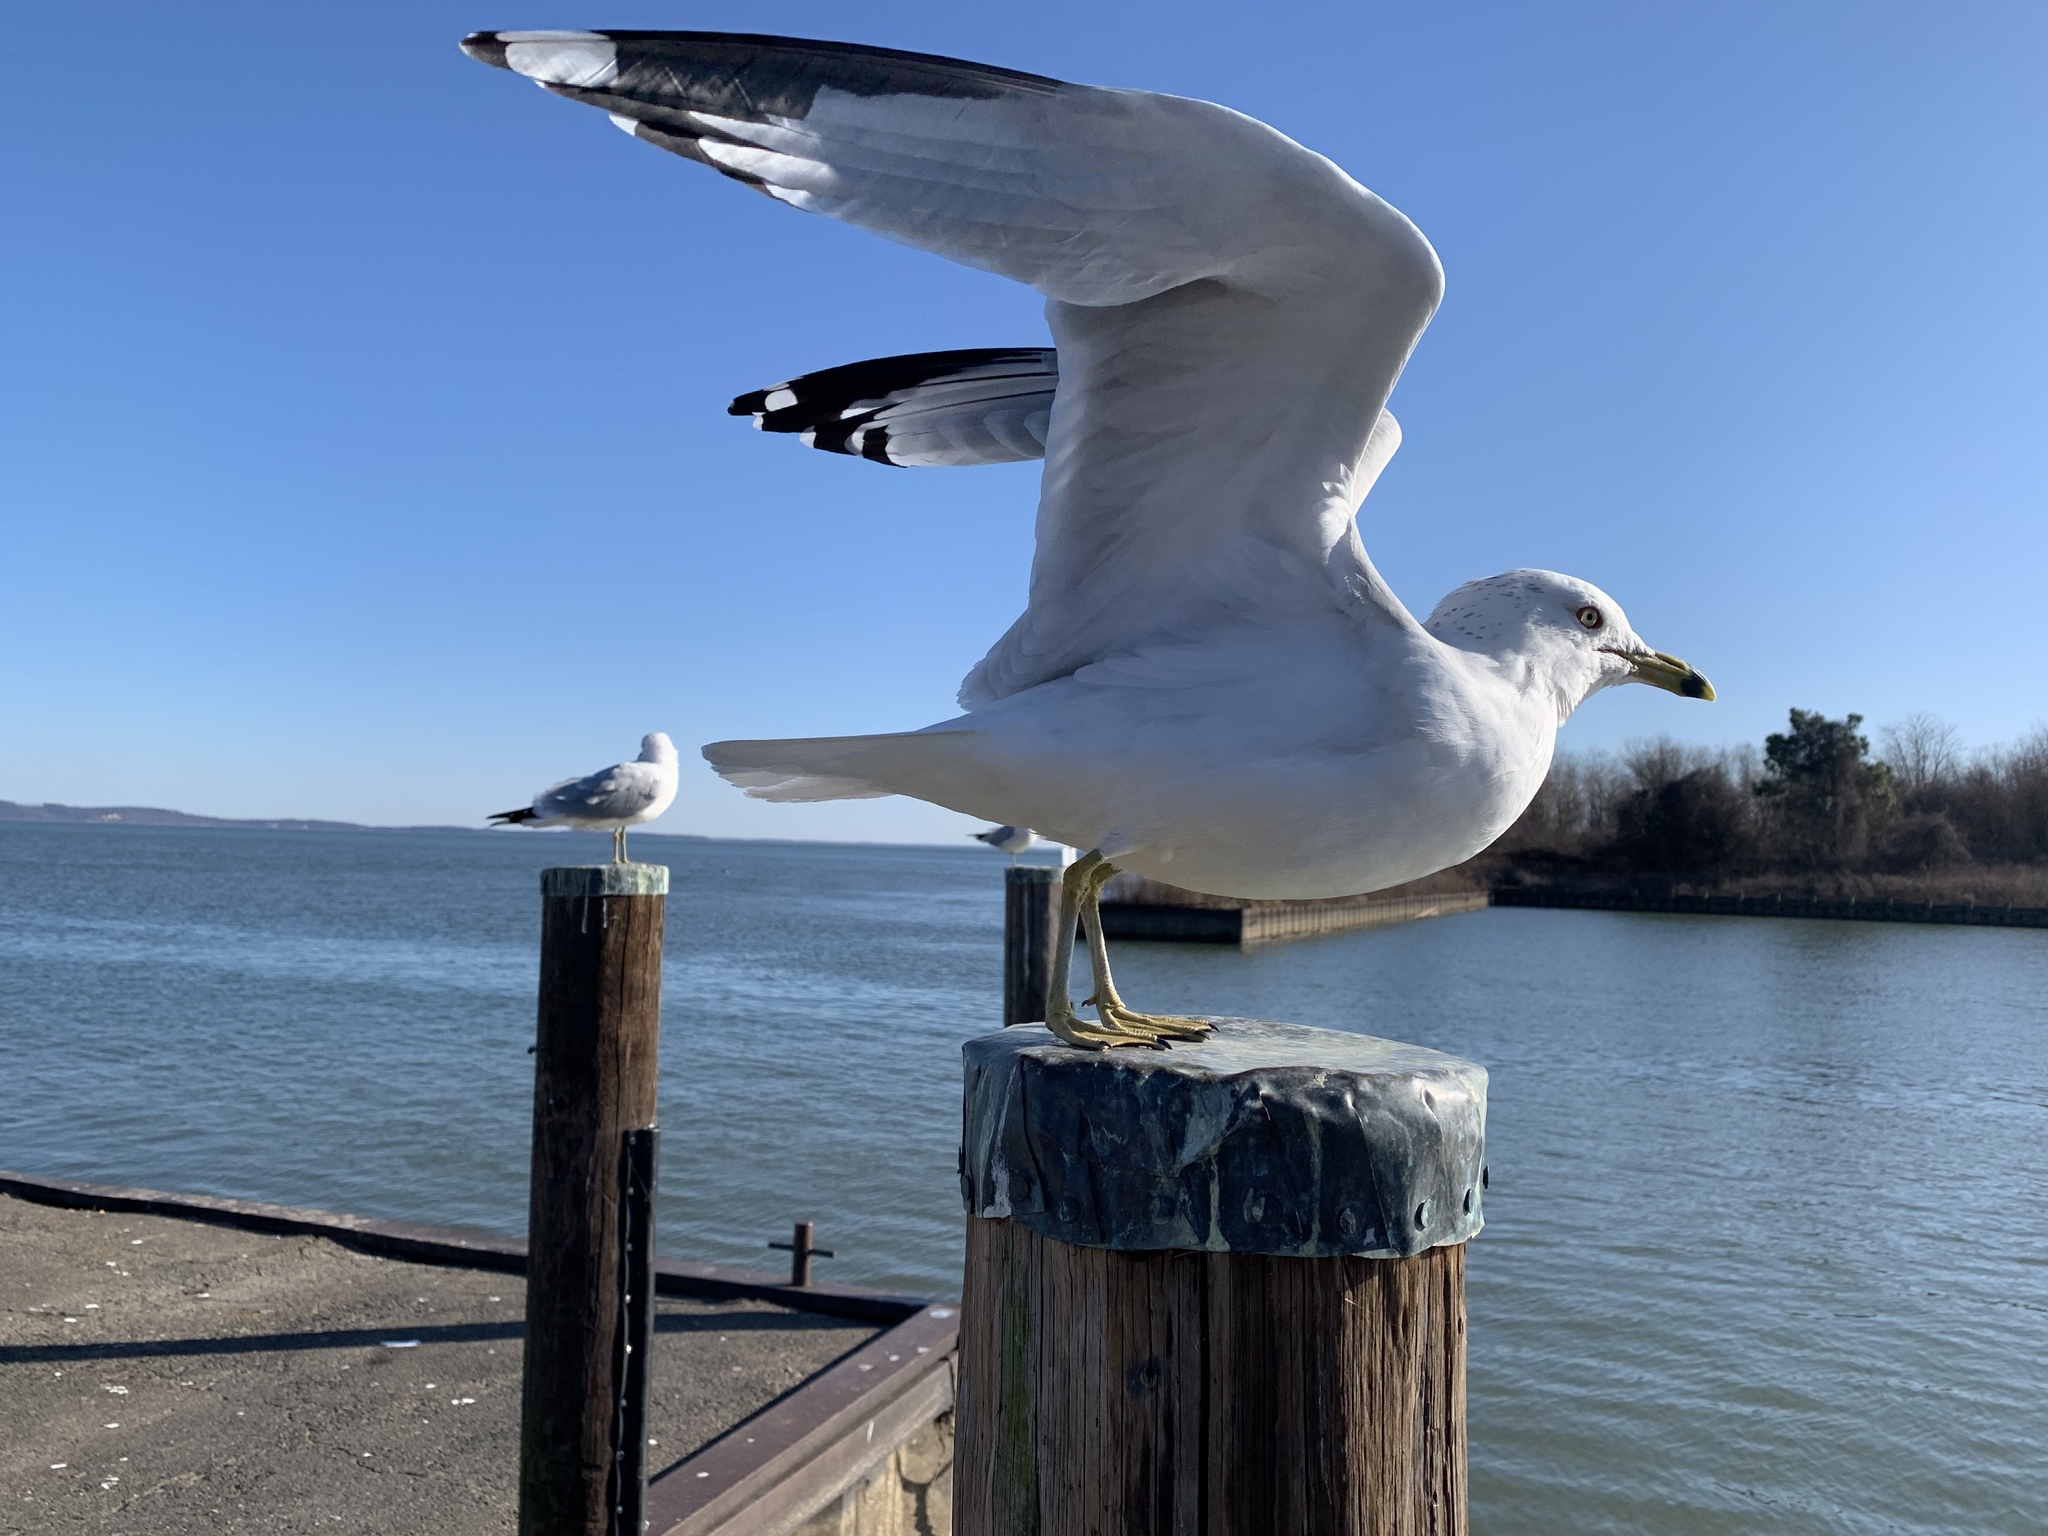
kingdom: Animalia
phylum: Chordata
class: Aves
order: Charadriiformes
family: Laridae
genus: Larus
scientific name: Larus delawarensis
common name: Ring-billed gull
